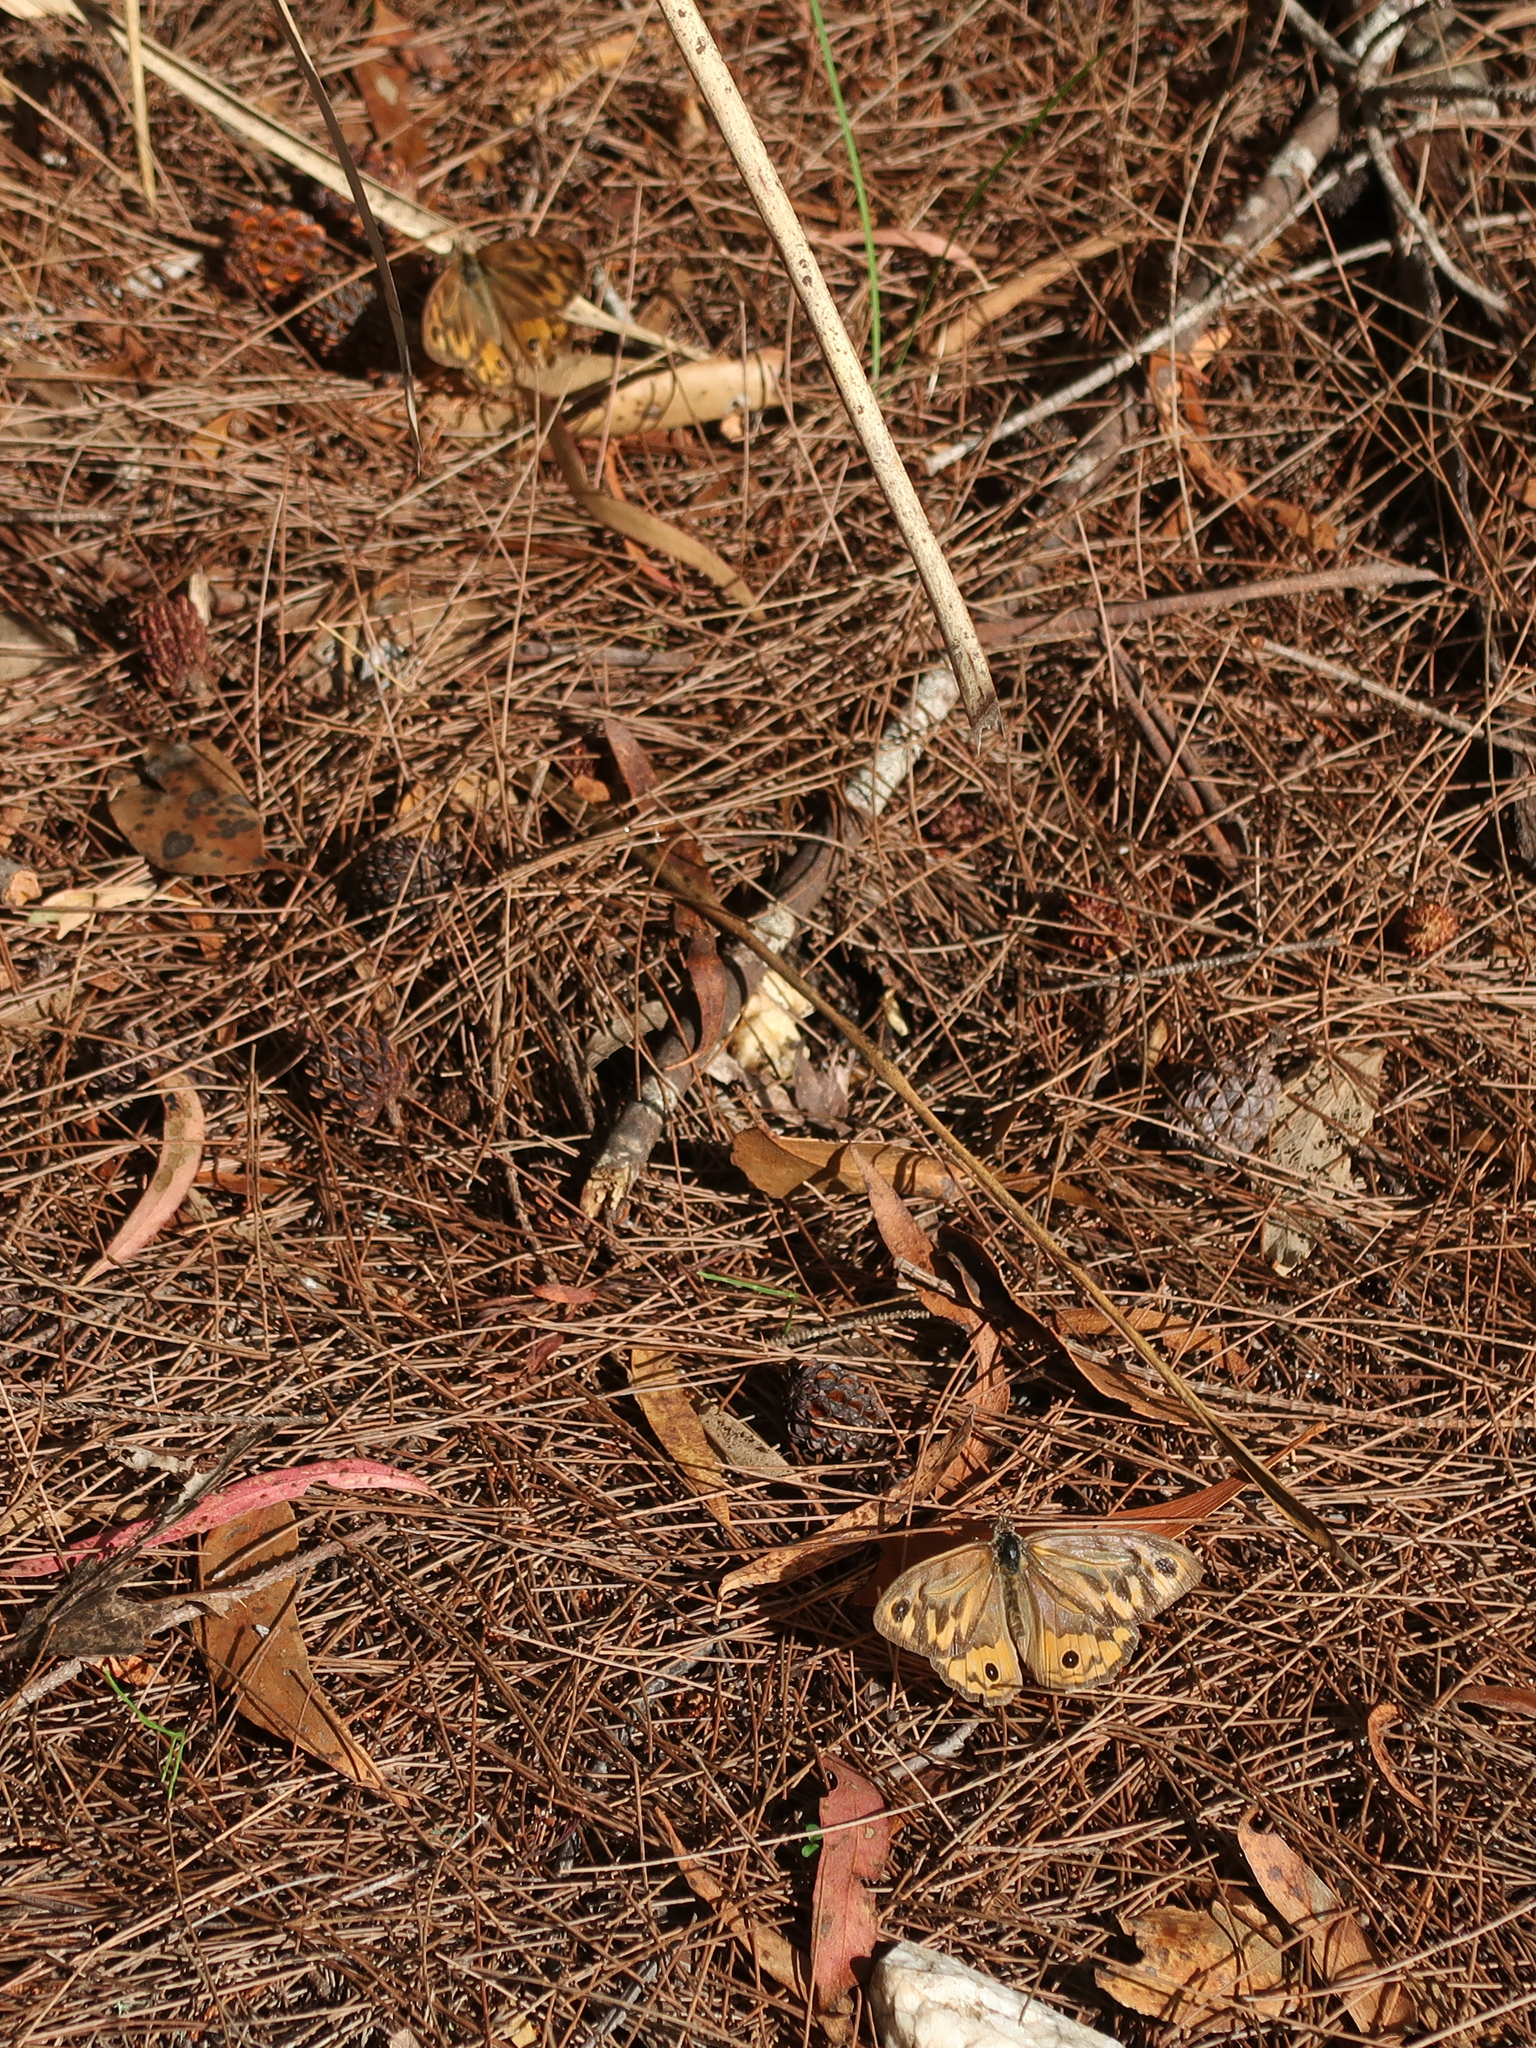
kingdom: Animalia
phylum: Arthropoda
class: Insecta
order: Lepidoptera
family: Nymphalidae
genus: Heteronympha
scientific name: Heteronympha merope
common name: Common brown
